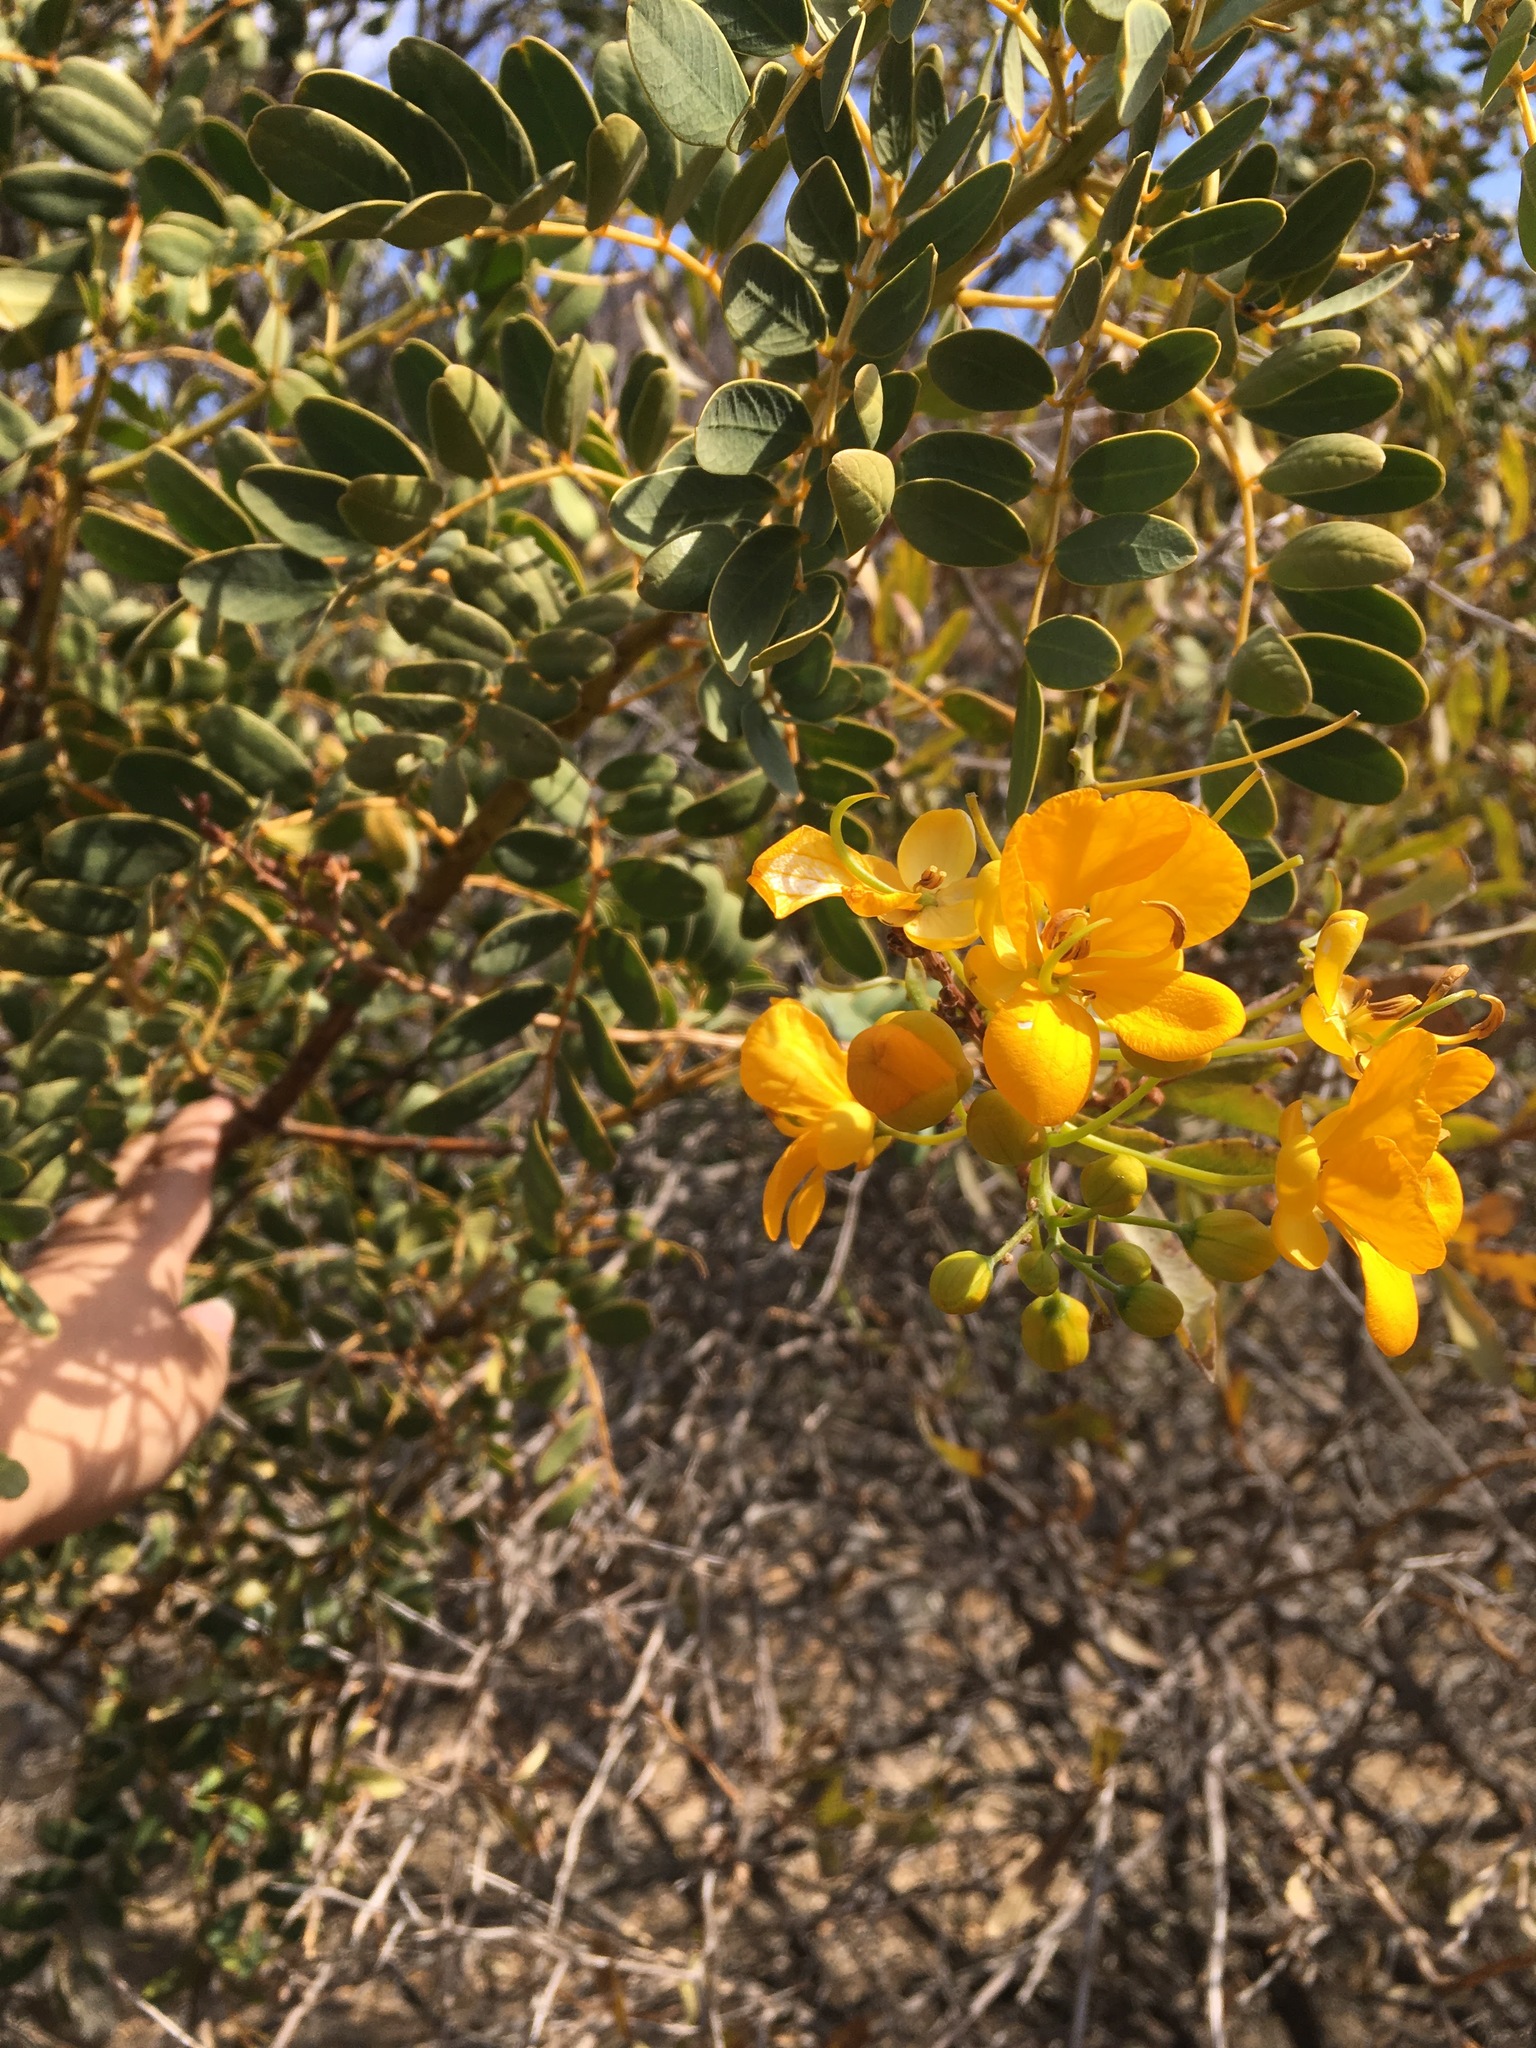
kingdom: Plantae
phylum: Tracheophyta
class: Magnoliopsida
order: Fabales
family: Fabaceae
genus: Senna
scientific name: Senna candolleana
